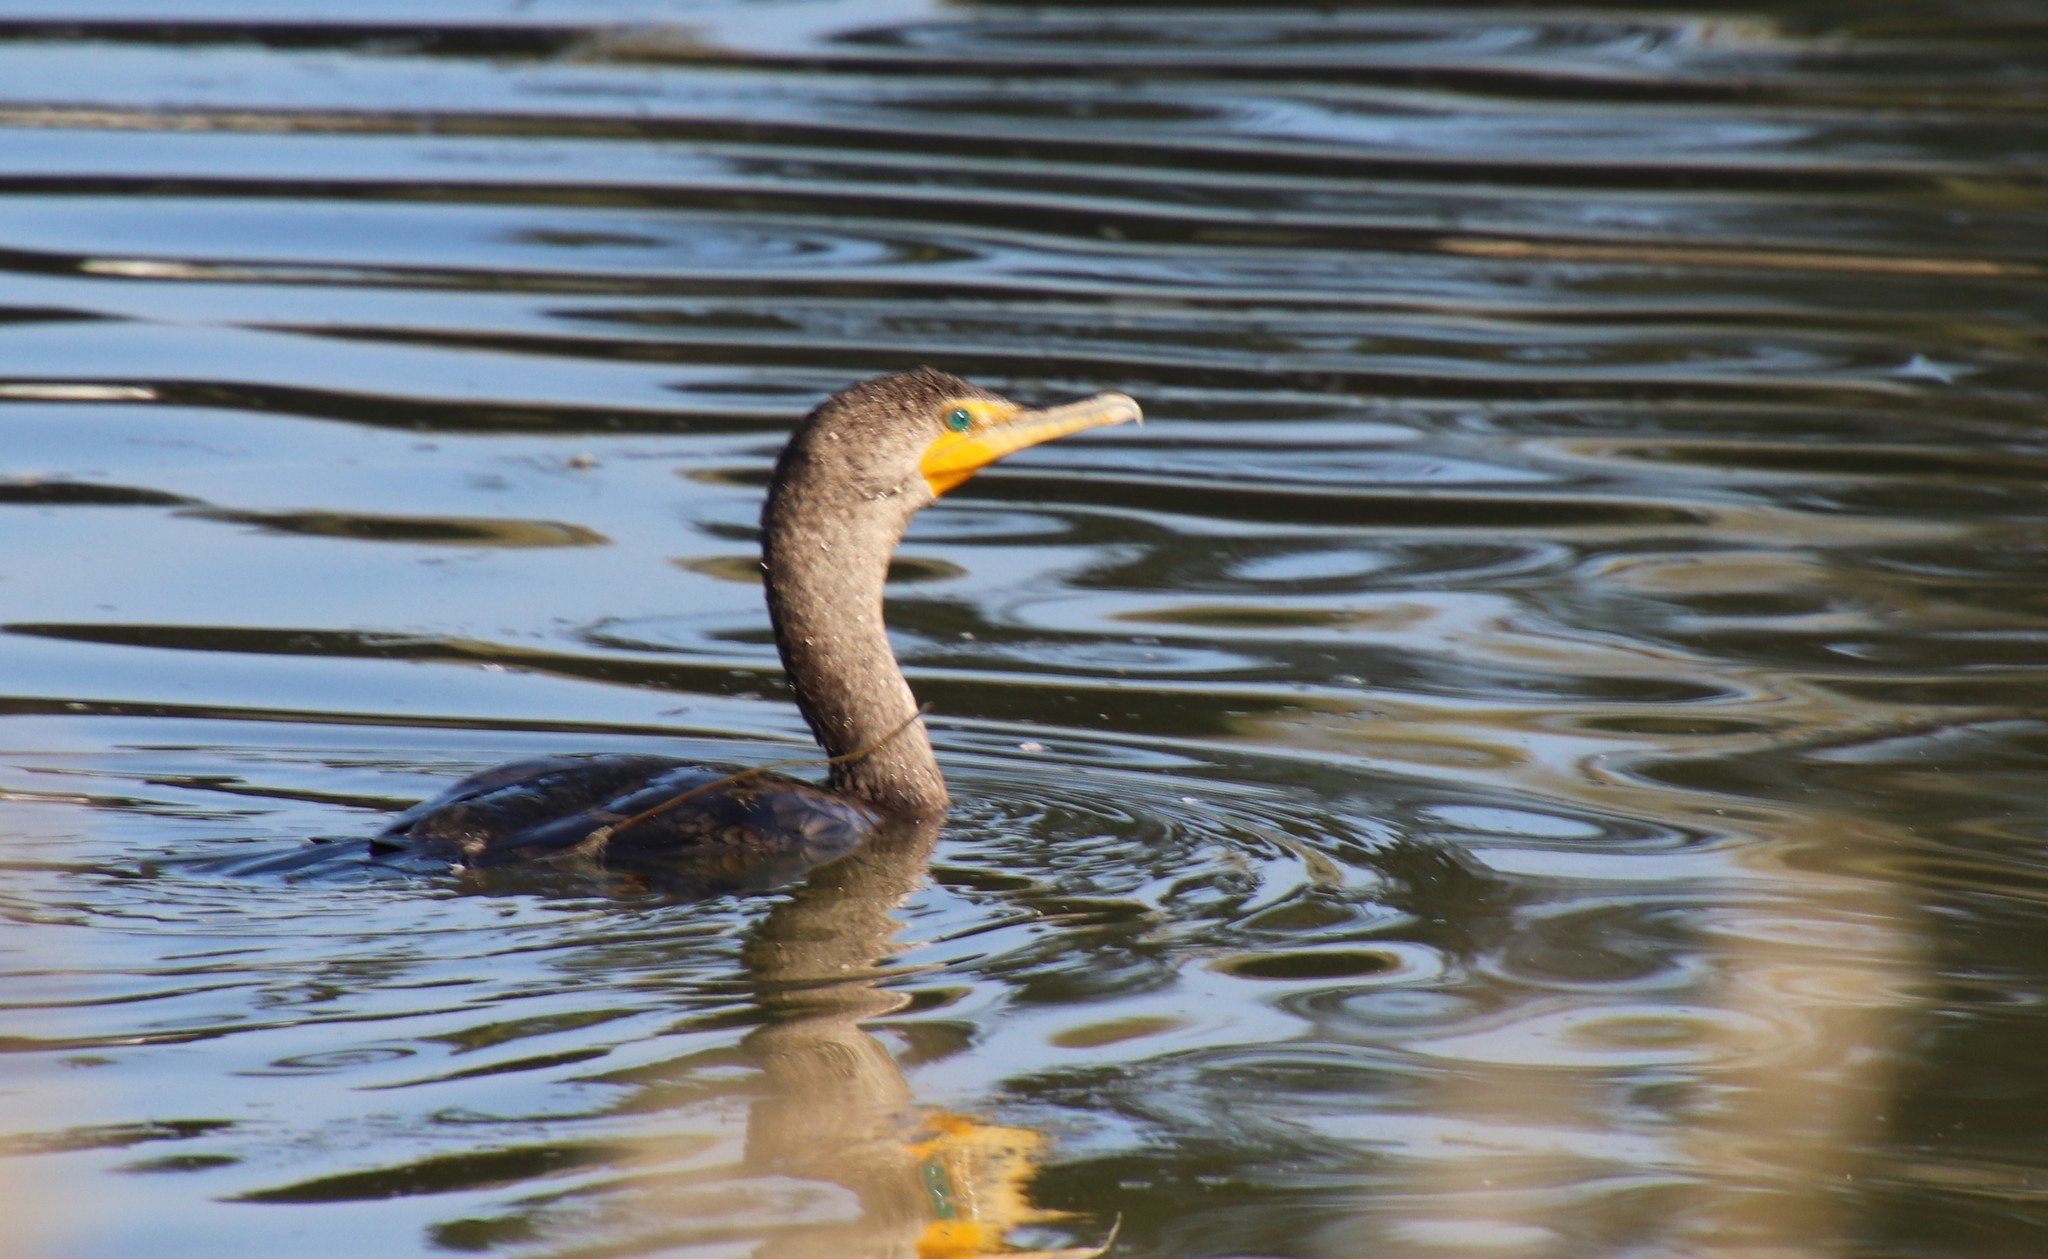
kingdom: Animalia
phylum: Chordata
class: Aves
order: Suliformes
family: Phalacrocoracidae
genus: Phalacrocorax
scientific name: Phalacrocorax auritus
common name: Double-crested cormorant
